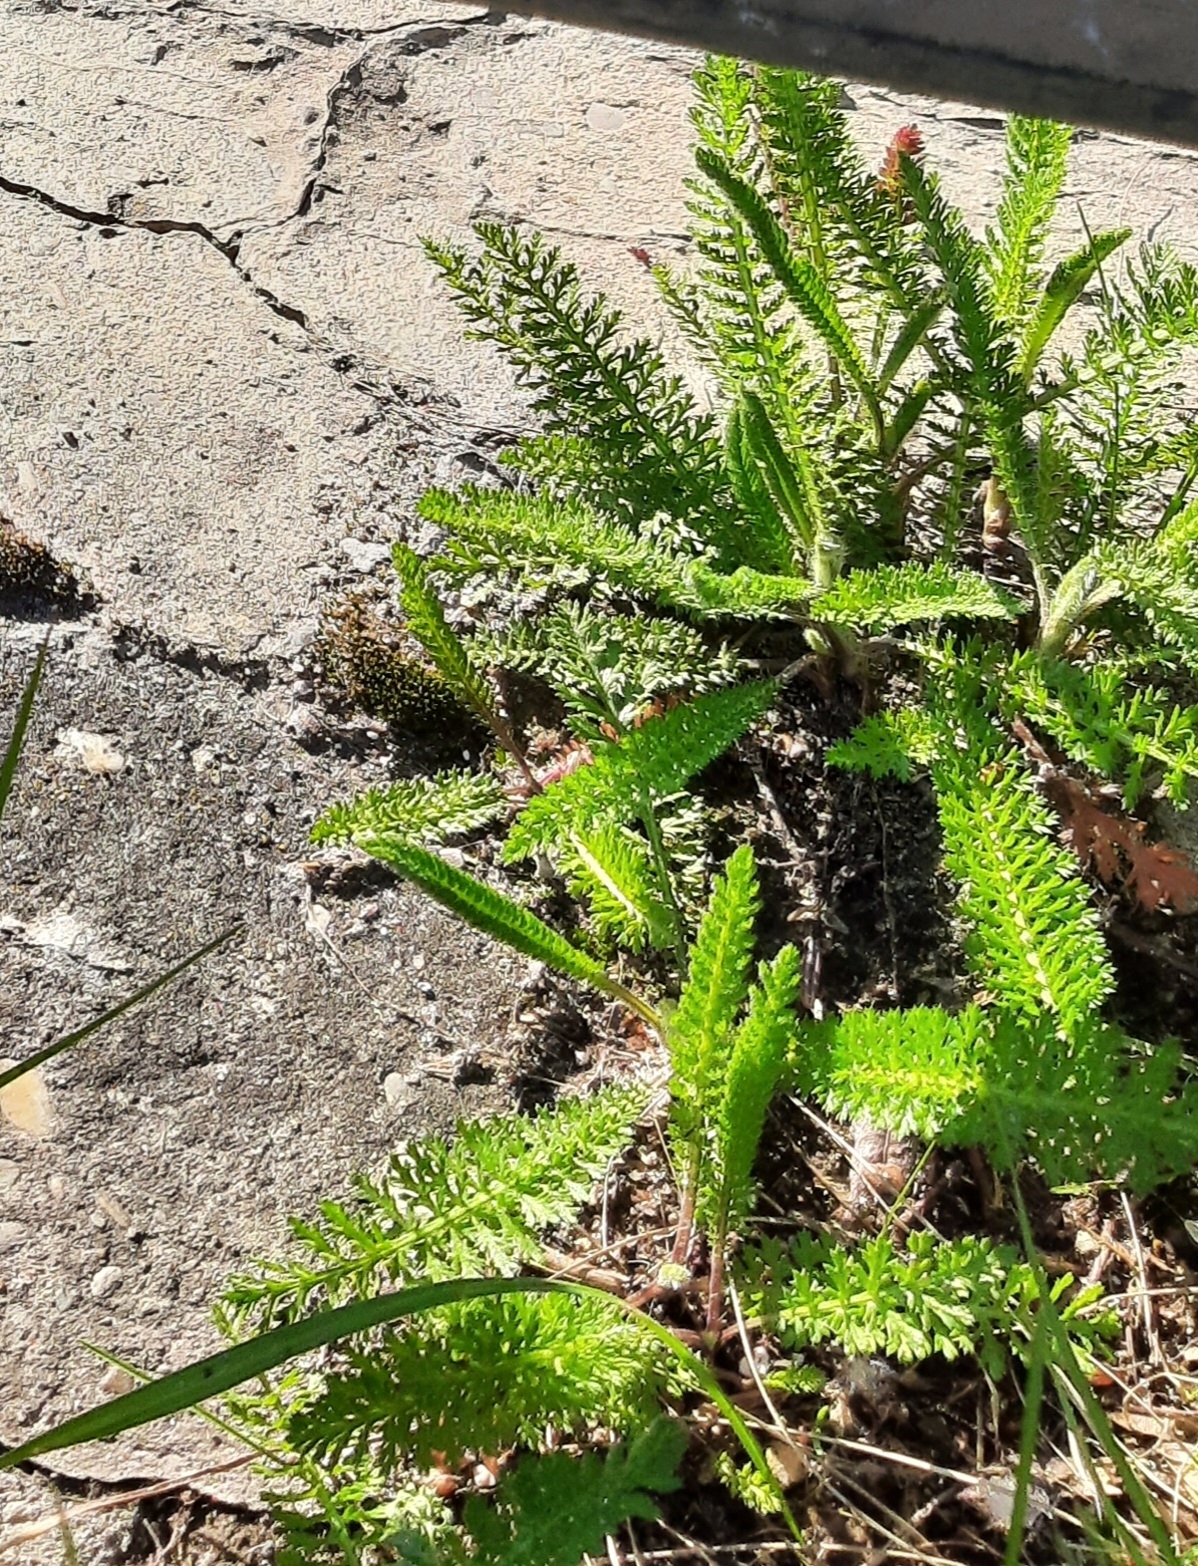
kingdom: Plantae
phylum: Tracheophyta
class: Magnoliopsida
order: Asterales
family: Asteraceae
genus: Achillea
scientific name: Achillea millefolium
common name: Yarrow
